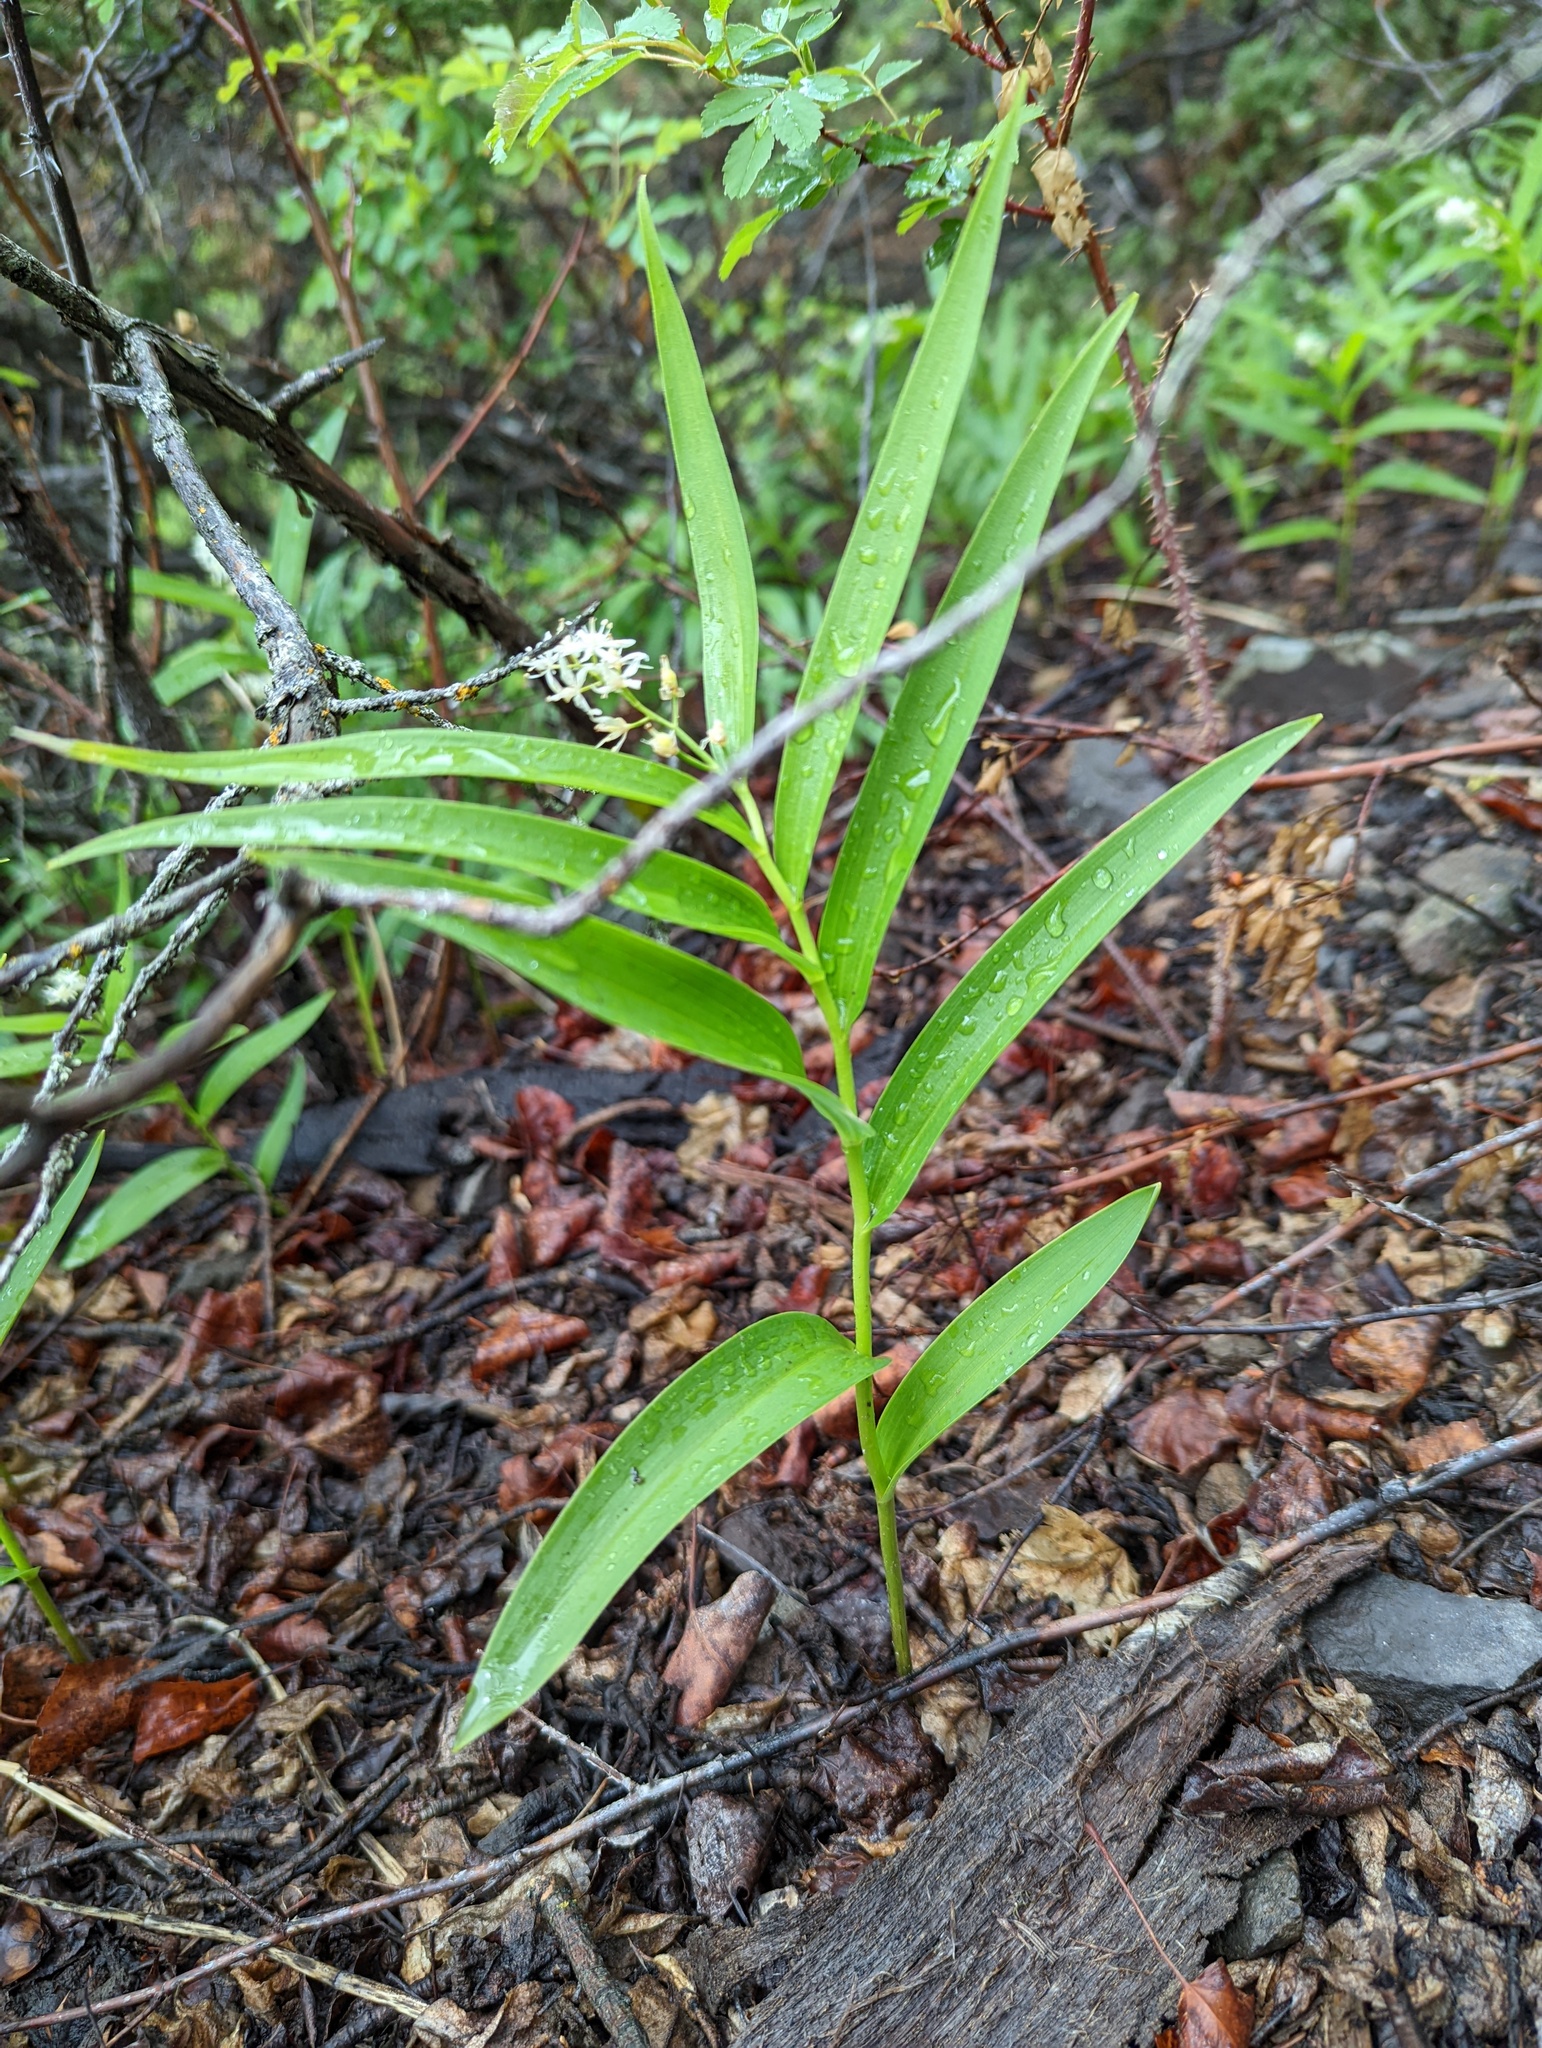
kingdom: Plantae
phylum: Tracheophyta
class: Liliopsida
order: Asparagales
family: Asparagaceae
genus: Maianthemum
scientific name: Maianthemum stellatum
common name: Little false solomon's seal
